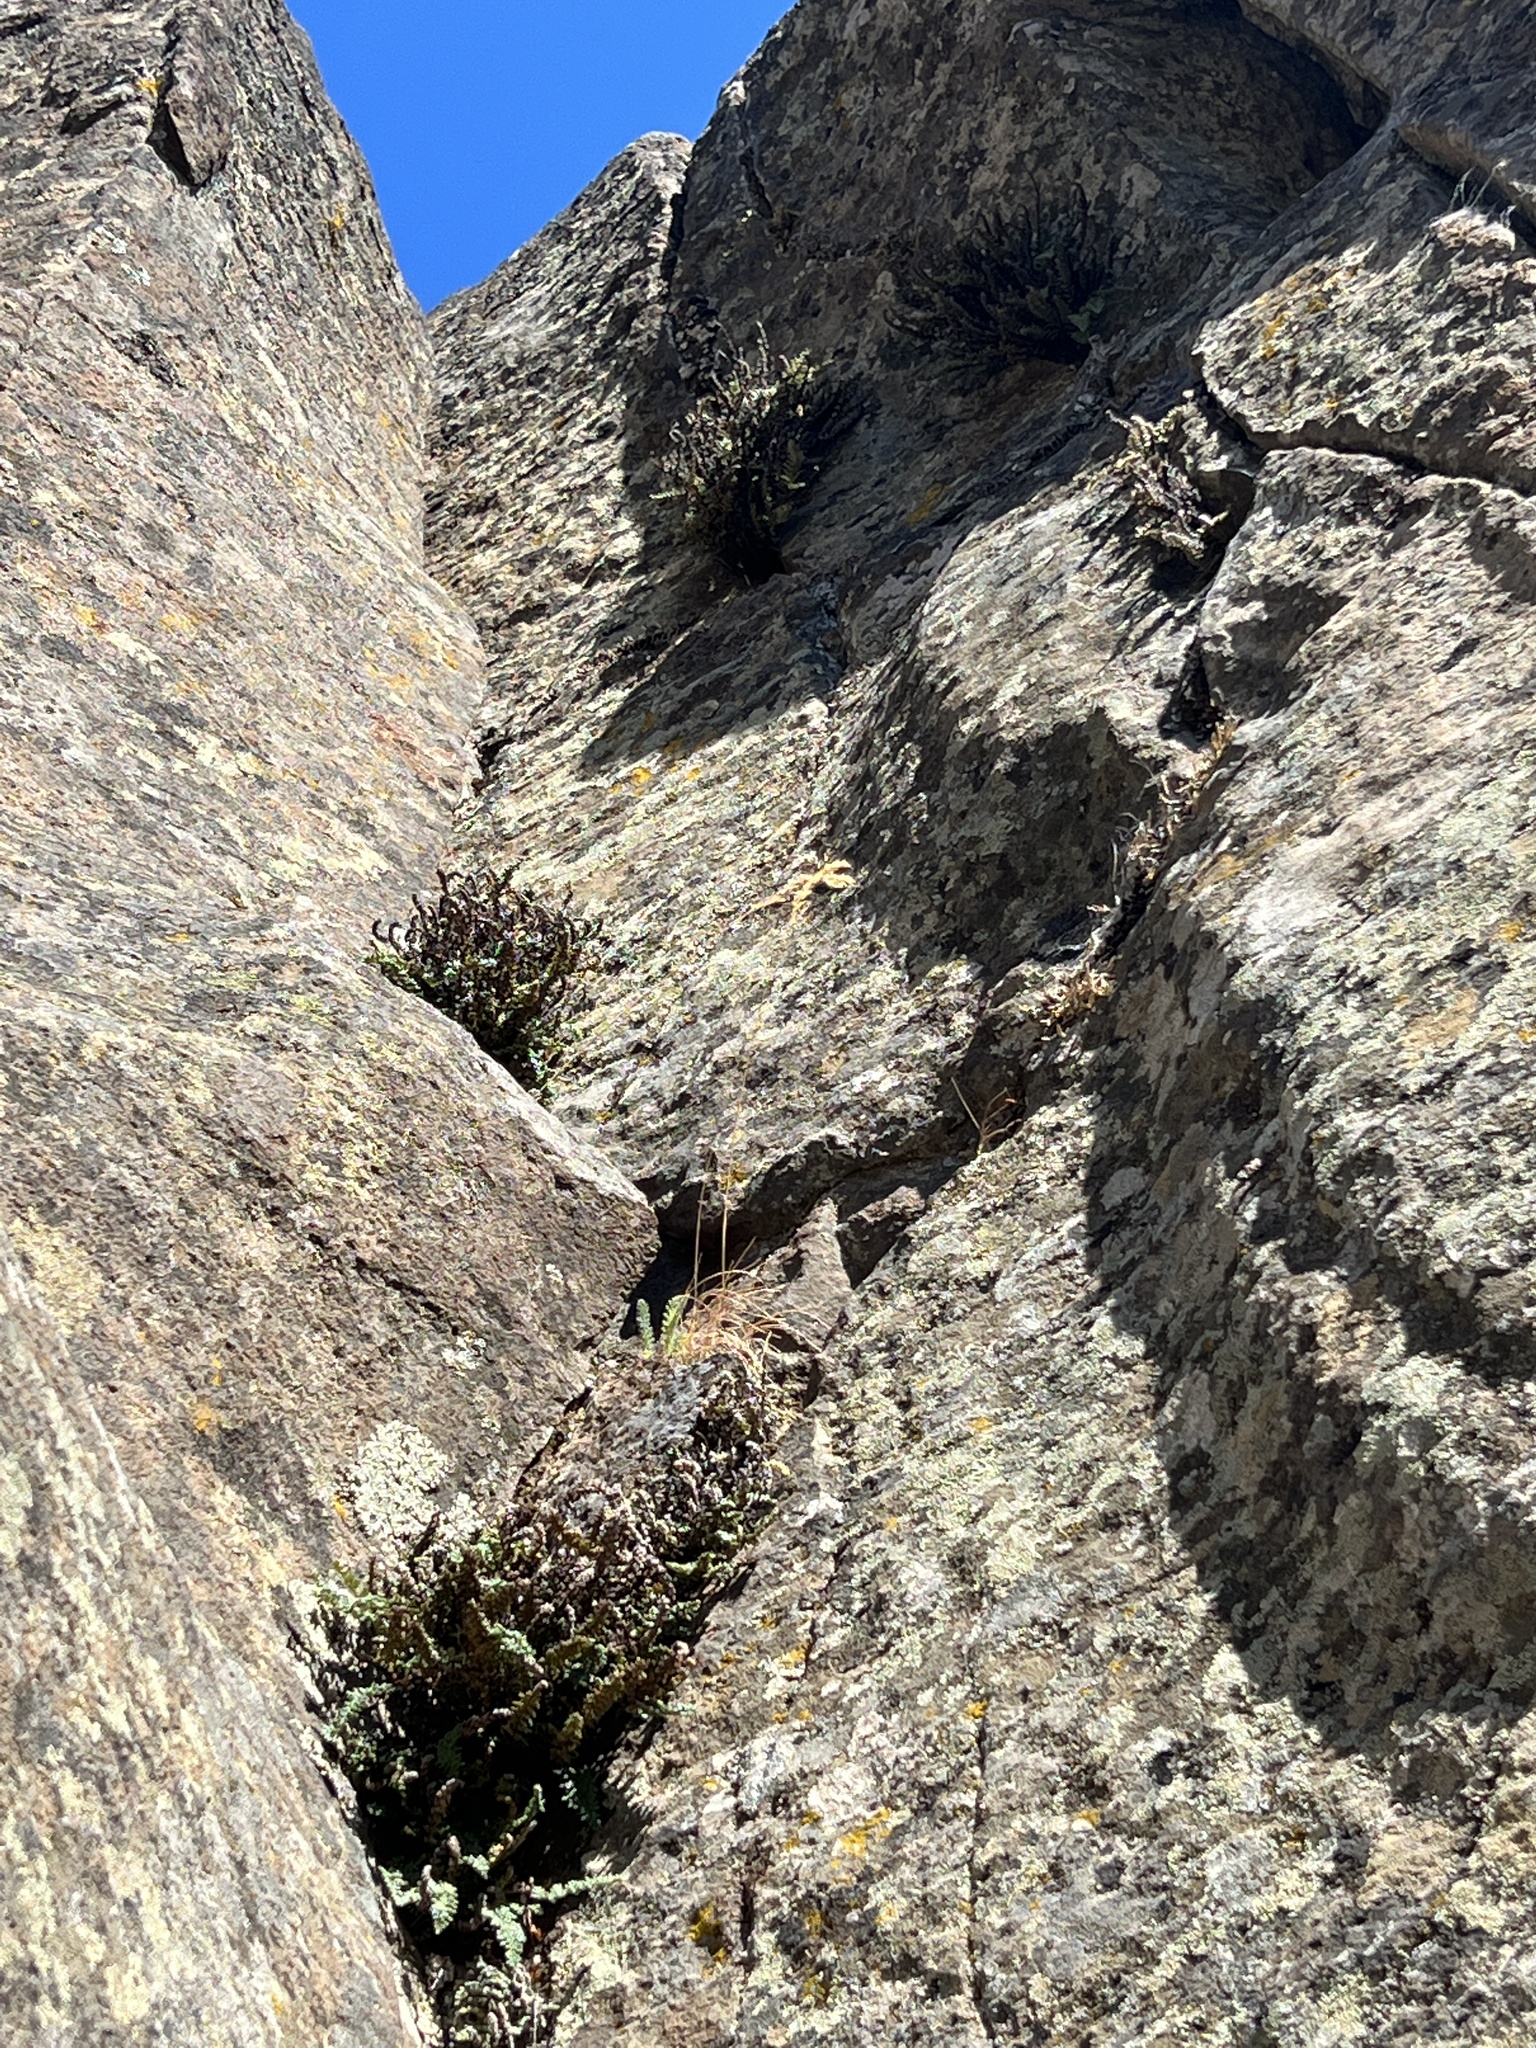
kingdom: Plantae
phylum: Tracheophyta
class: Polypodiopsida
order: Polypodiales
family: Pteridaceae
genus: Myriopteris
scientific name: Myriopteris gracillima
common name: Lace fern
